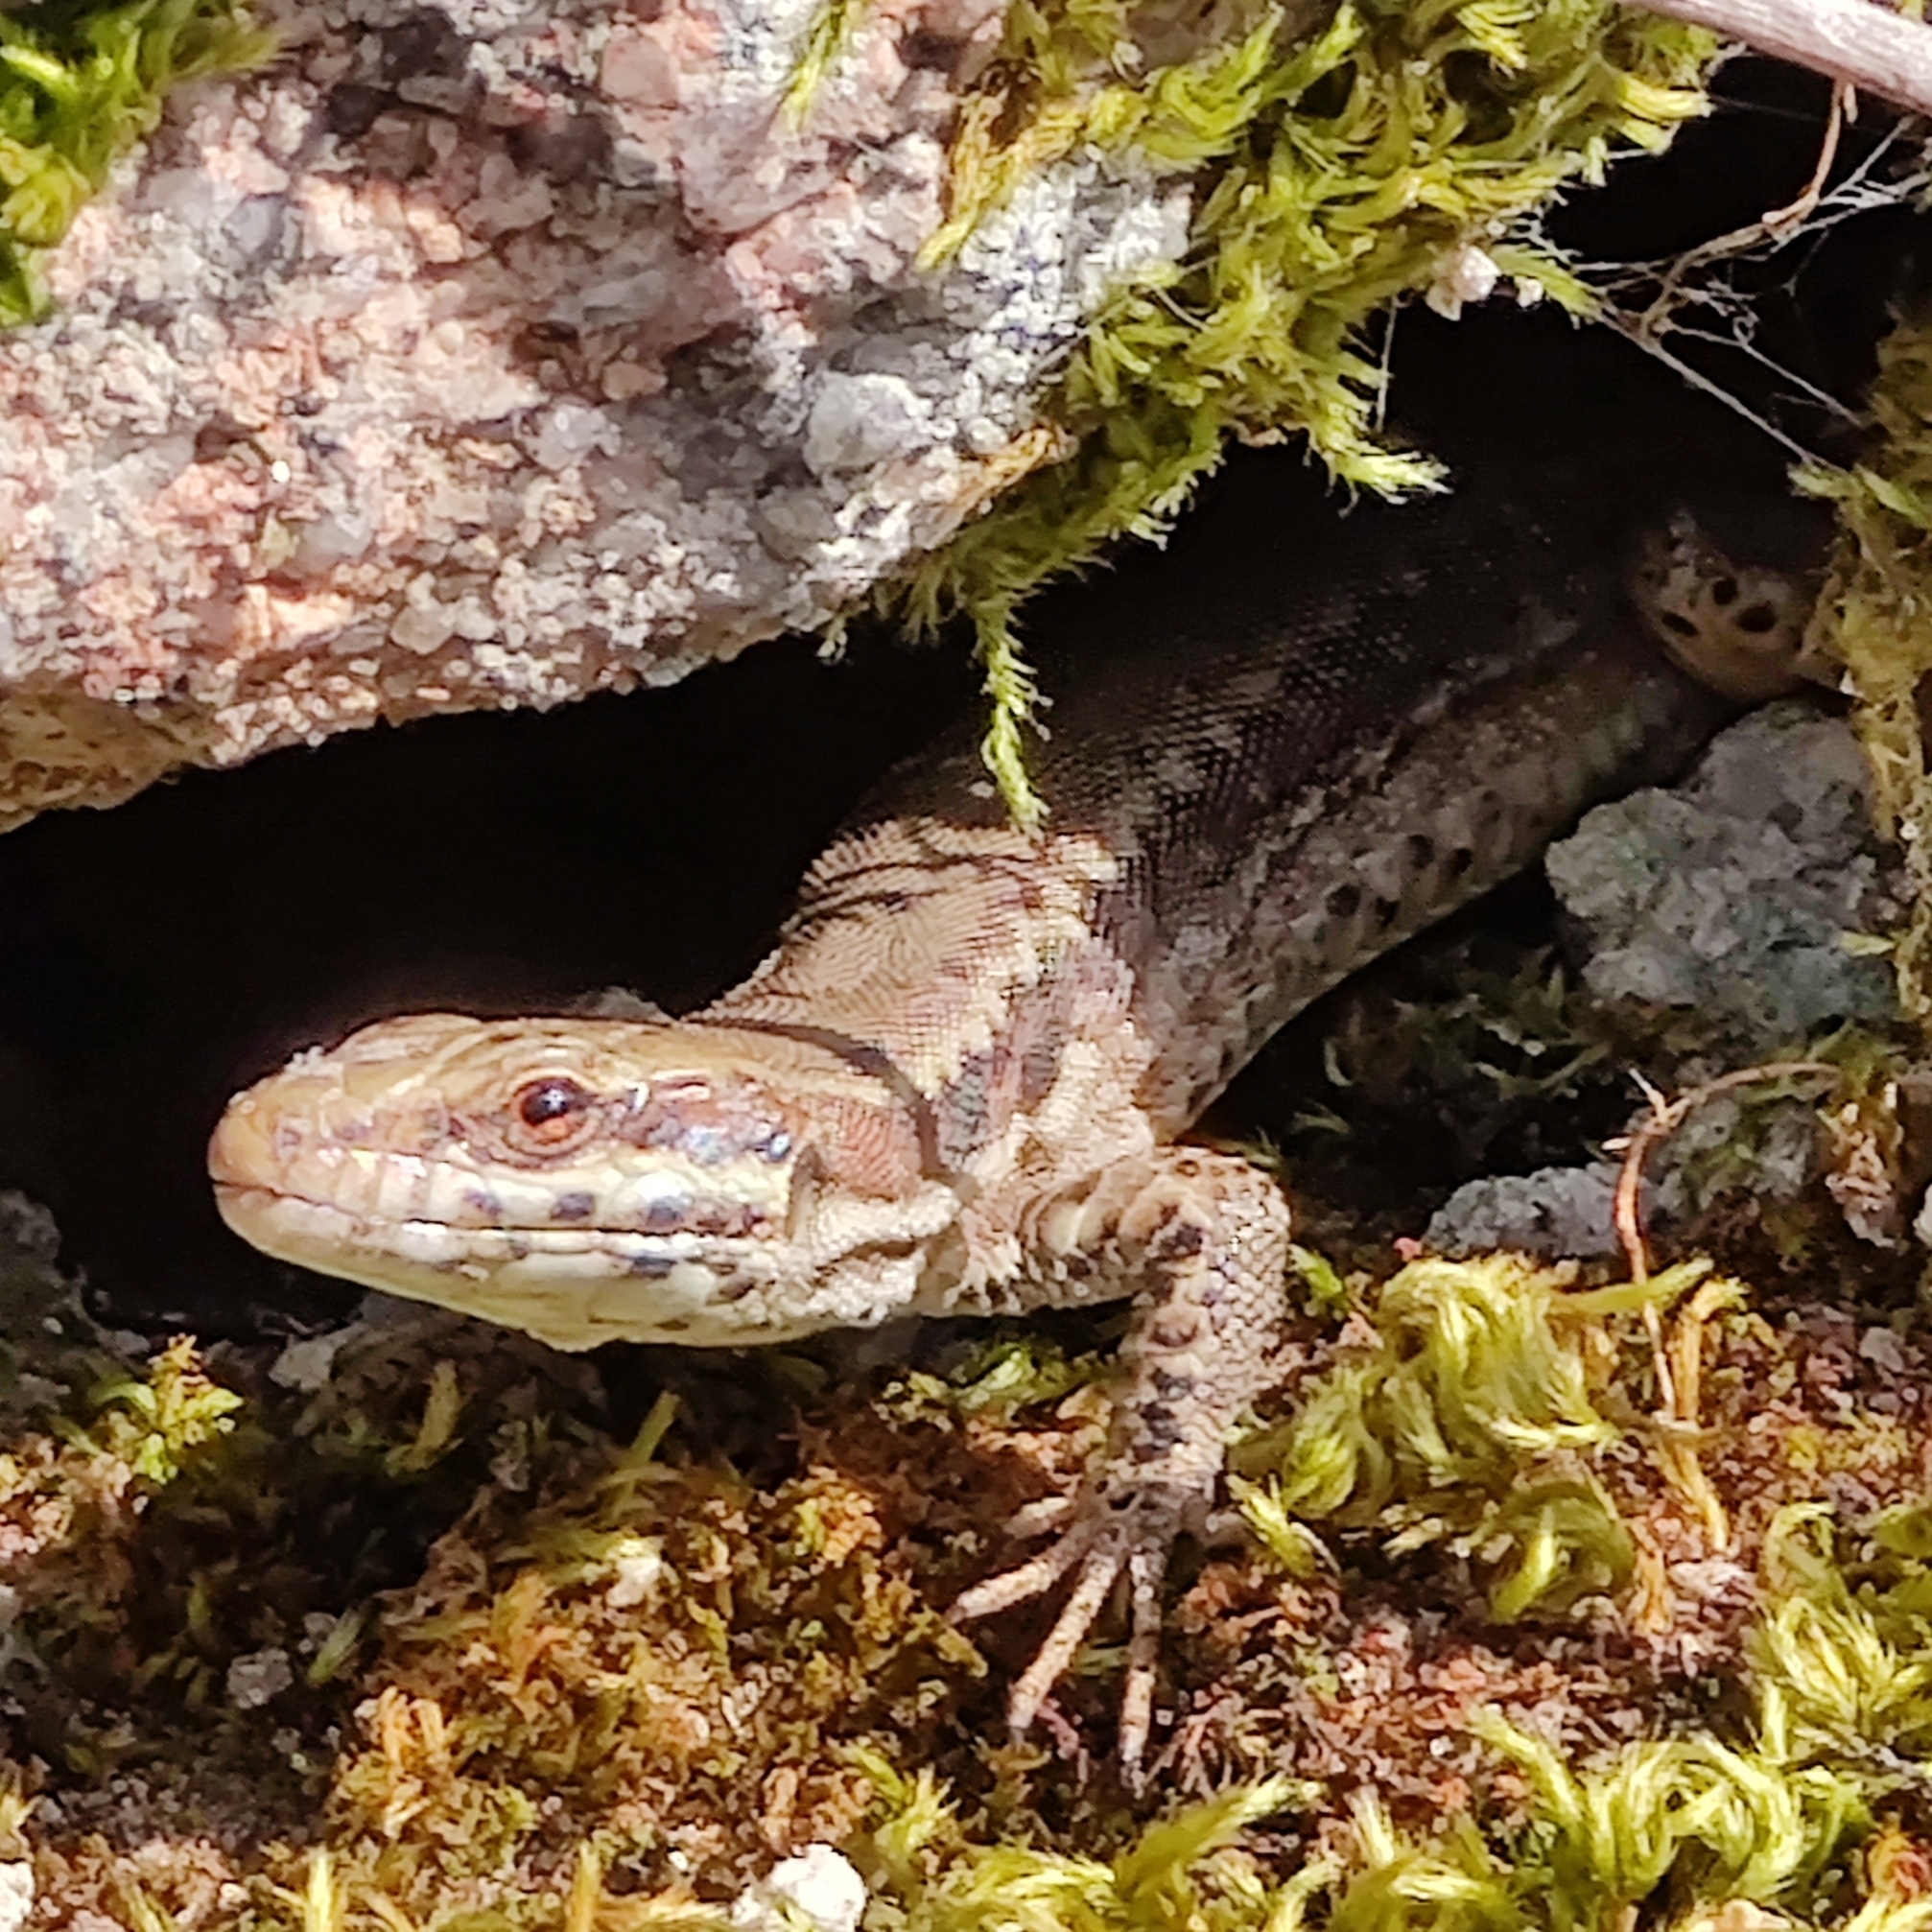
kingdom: Animalia
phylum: Chordata
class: Squamata
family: Lacertidae
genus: Podarcis
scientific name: Podarcis muralis
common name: Common wall lizard
